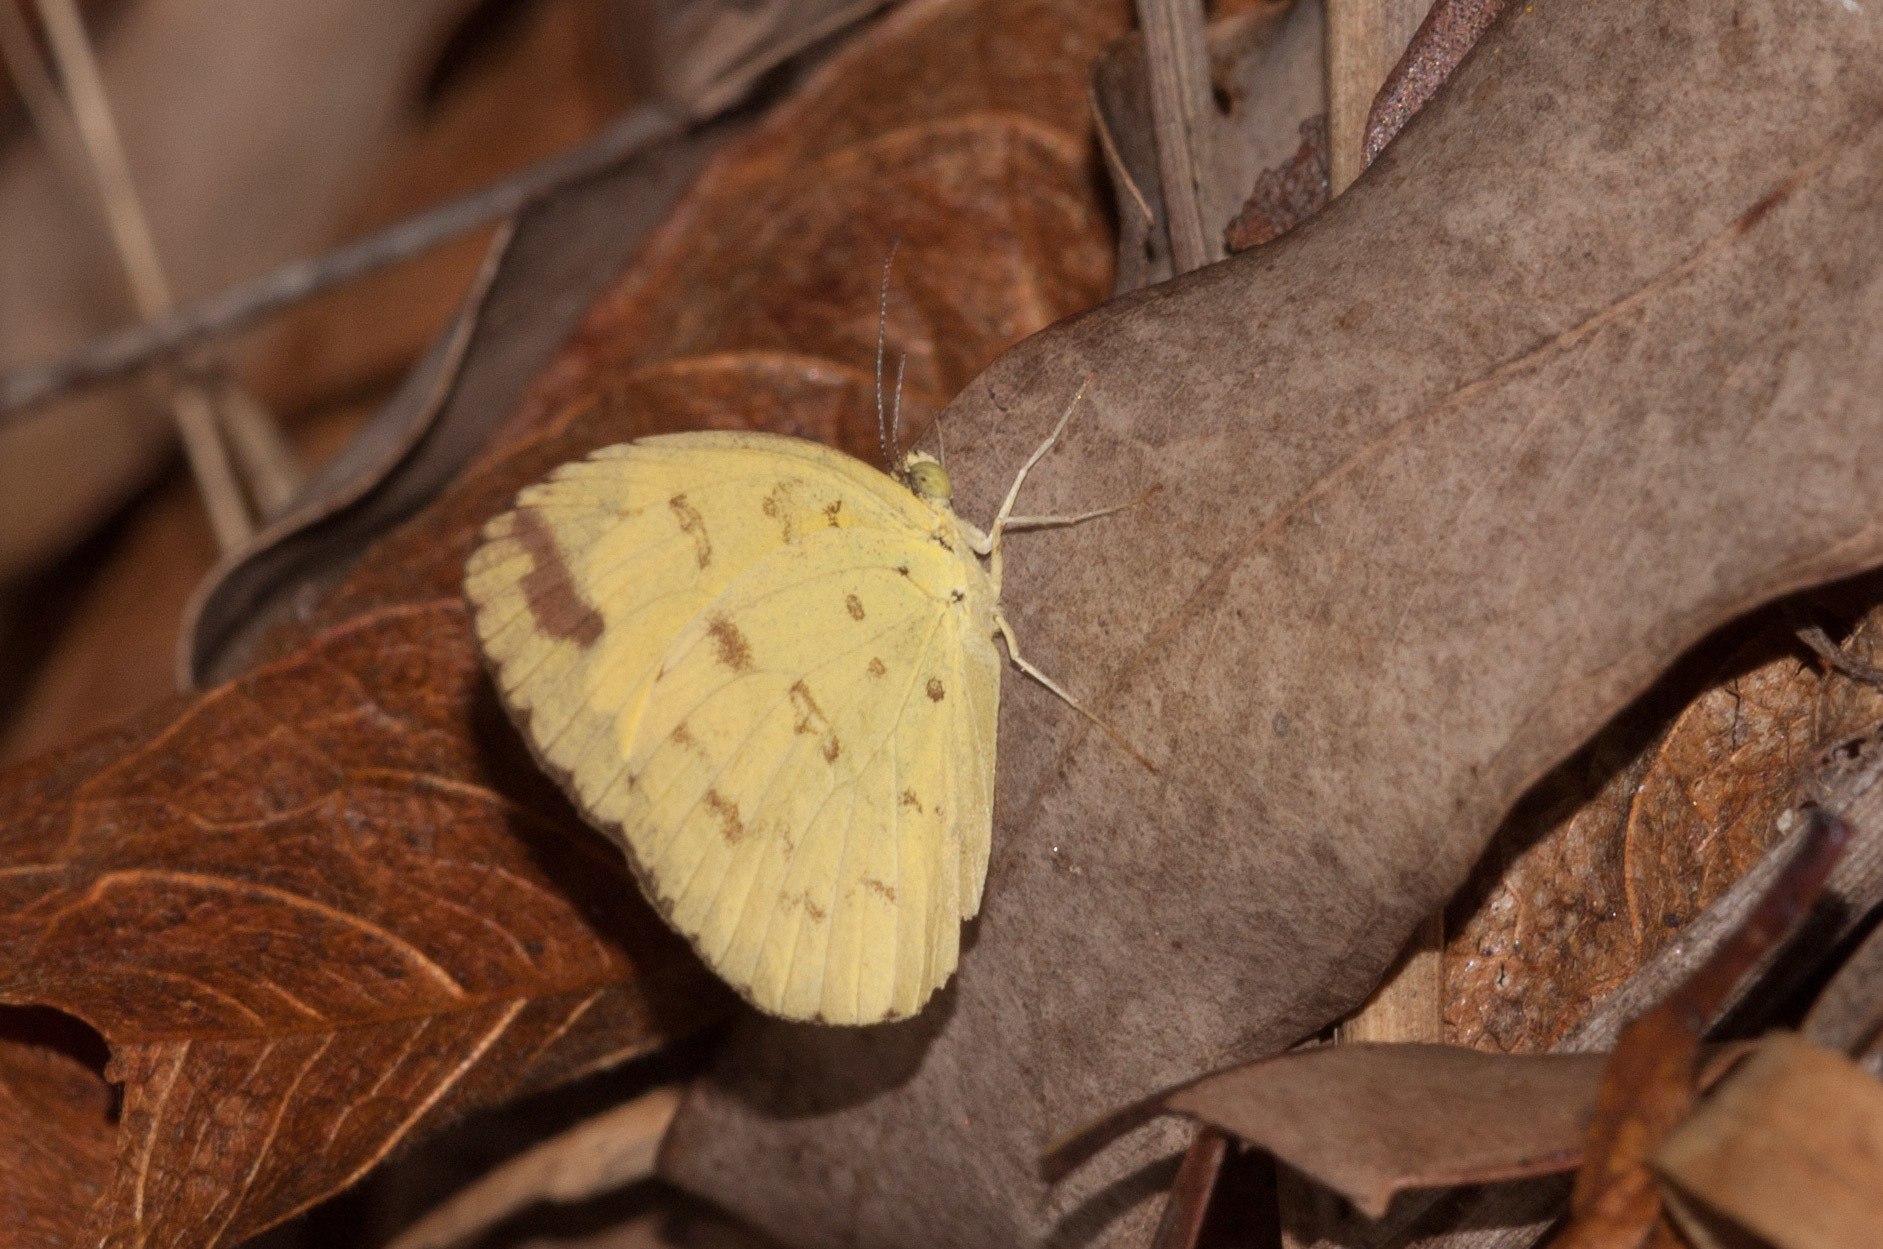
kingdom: Animalia
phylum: Arthropoda
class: Insecta
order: Lepidoptera
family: Pieridae
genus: Eurema
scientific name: Eurema alitha
